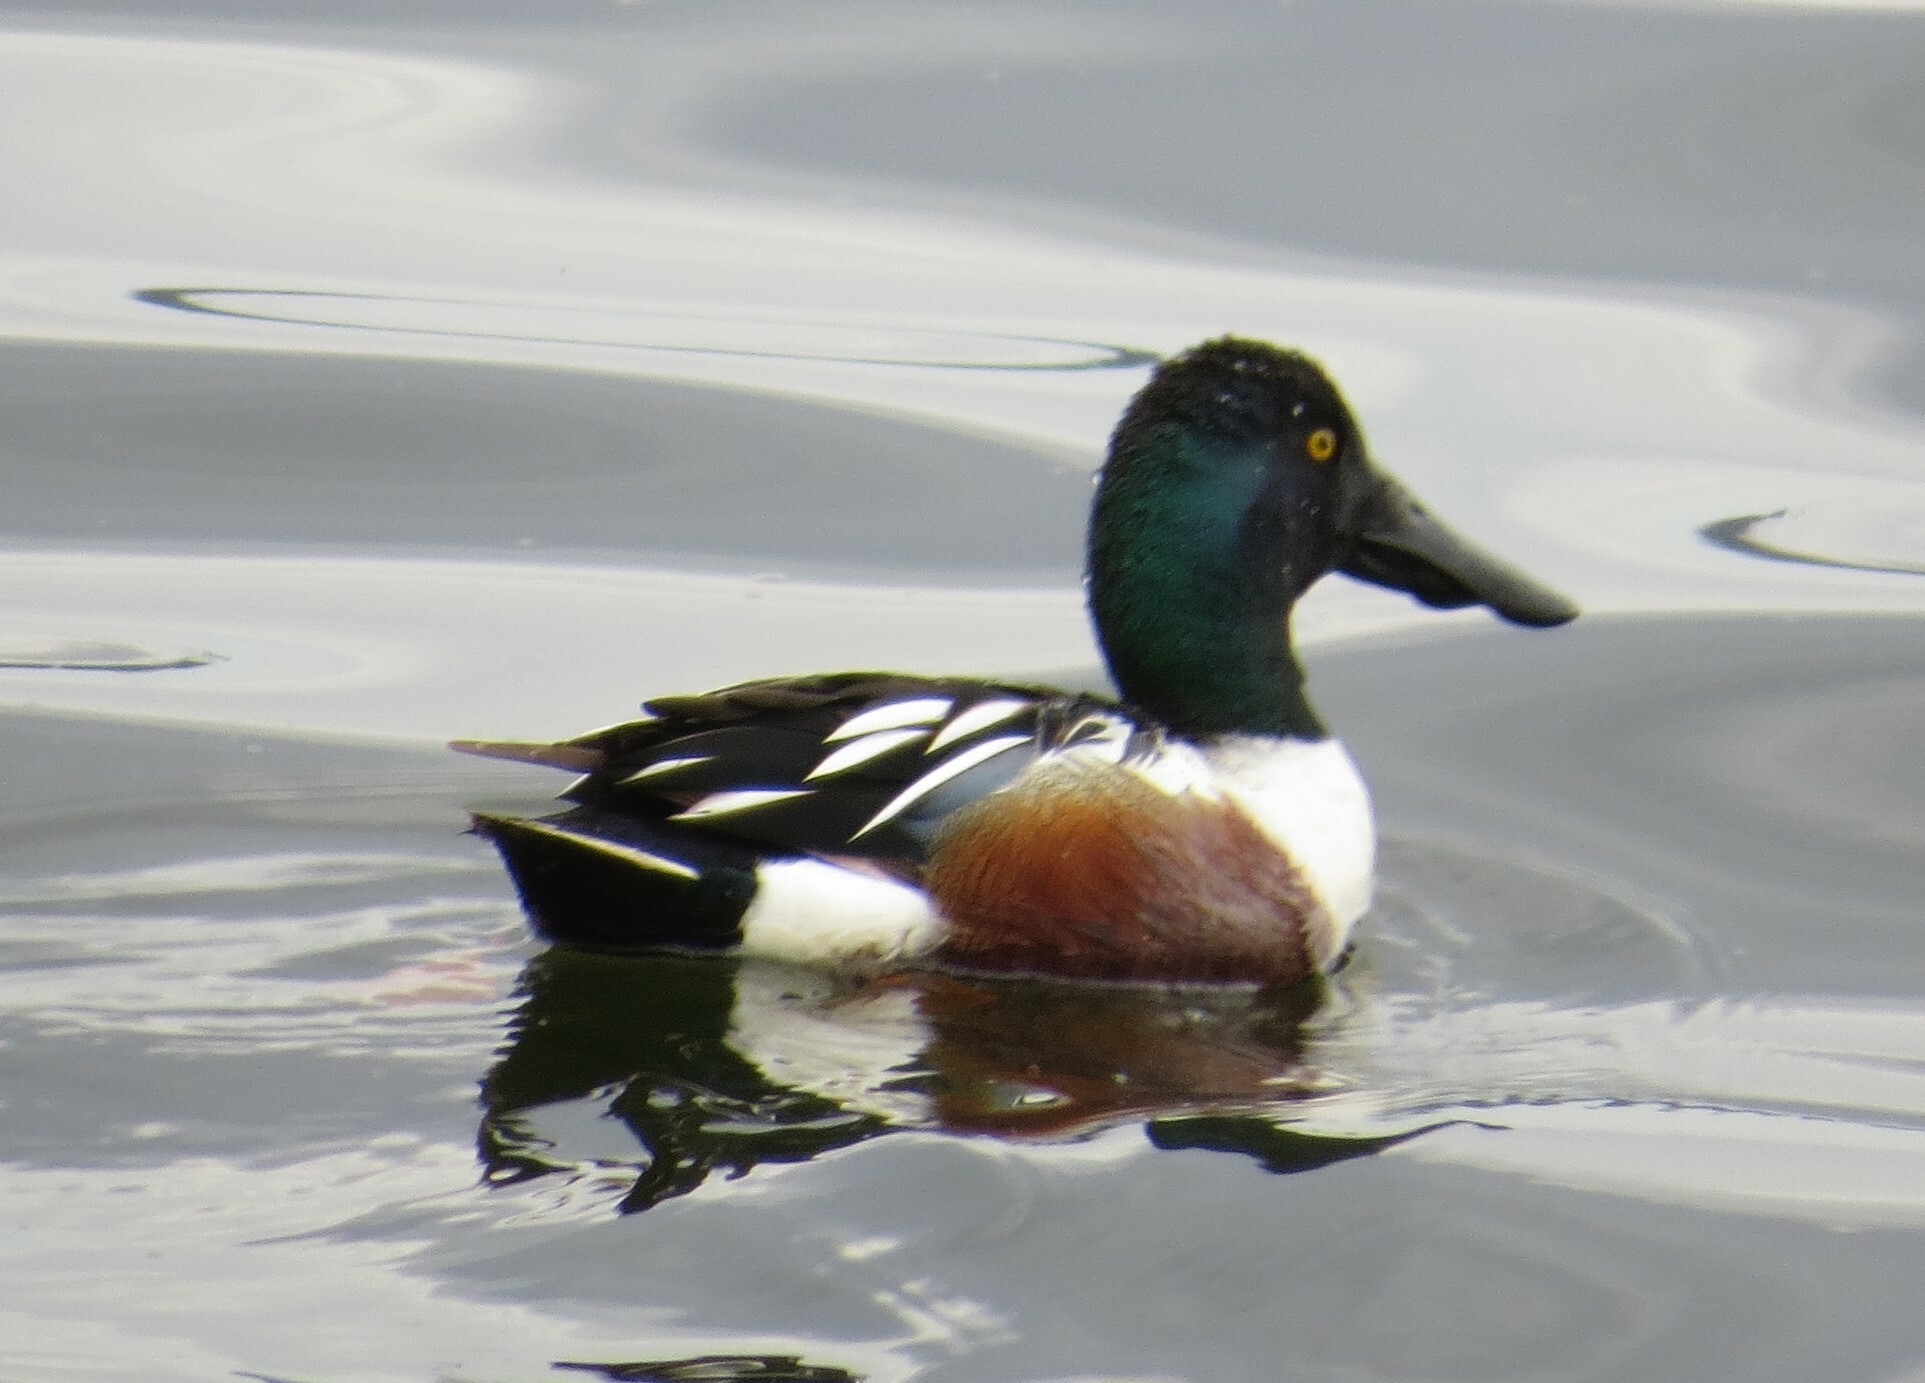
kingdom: Animalia
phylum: Chordata
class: Aves
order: Anseriformes
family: Anatidae
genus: Spatula
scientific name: Spatula clypeata
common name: Northern shoveler
